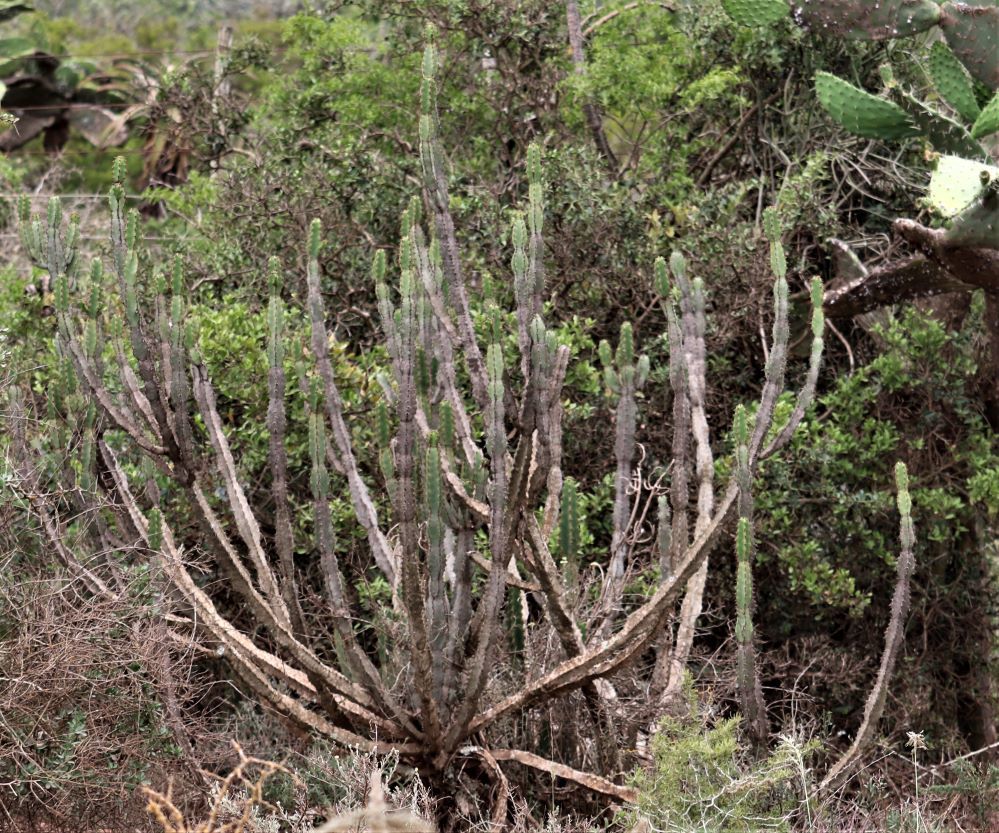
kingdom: Plantae
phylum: Tracheophyta
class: Magnoliopsida
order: Malpighiales
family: Euphorbiaceae
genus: Euphorbia
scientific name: Euphorbia caerulescens
